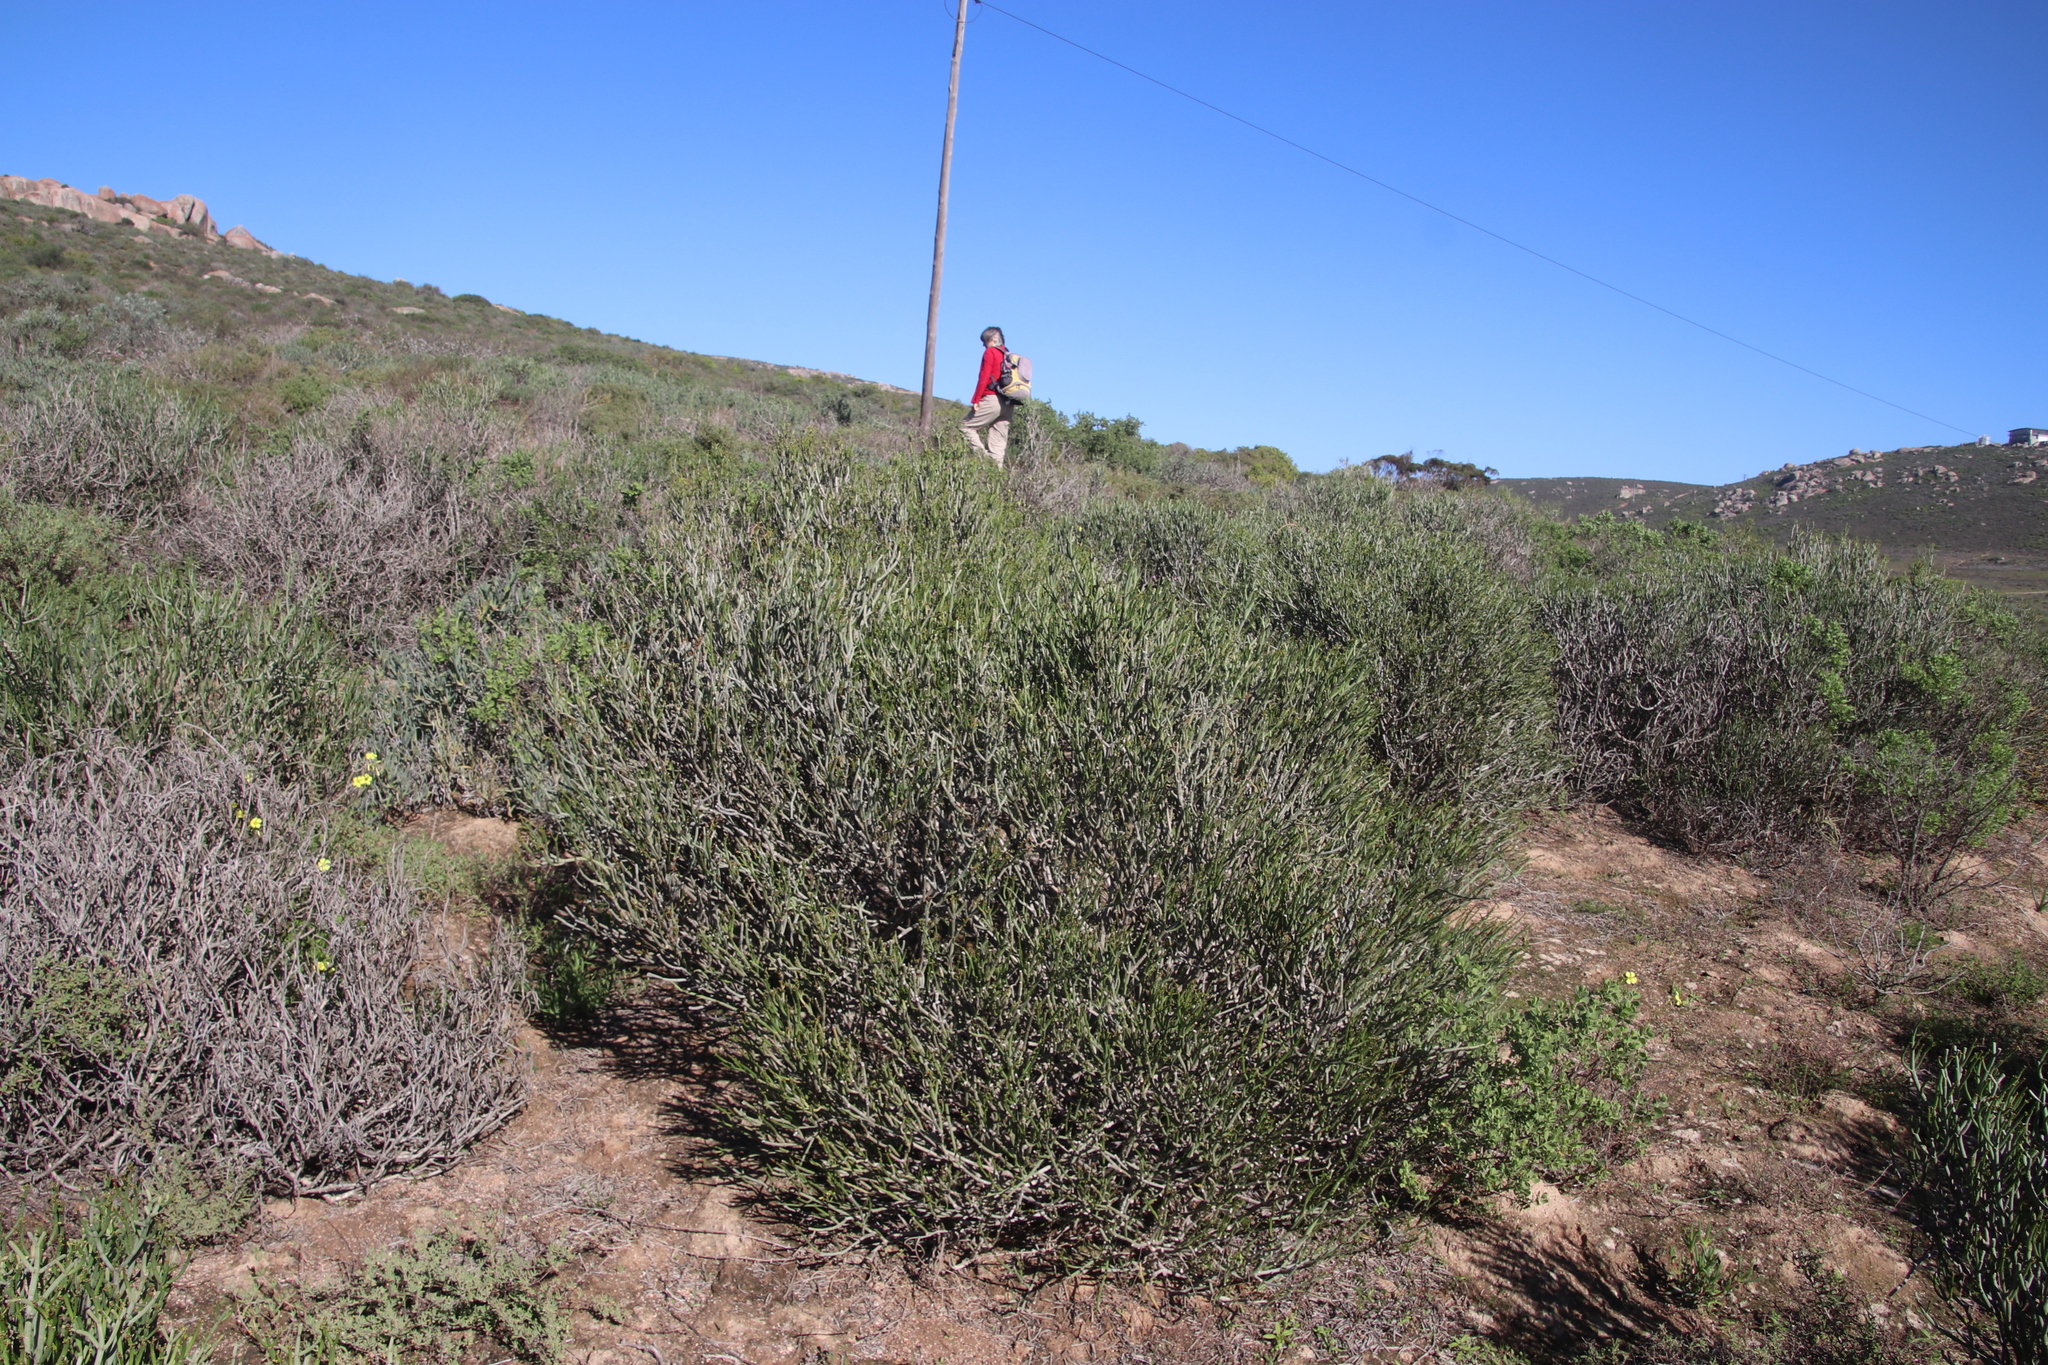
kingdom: Plantae
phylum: Tracheophyta
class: Magnoliopsida
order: Malpighiales
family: Euphorbiaceae
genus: Euphorbia
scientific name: Euphorbia burmanni
